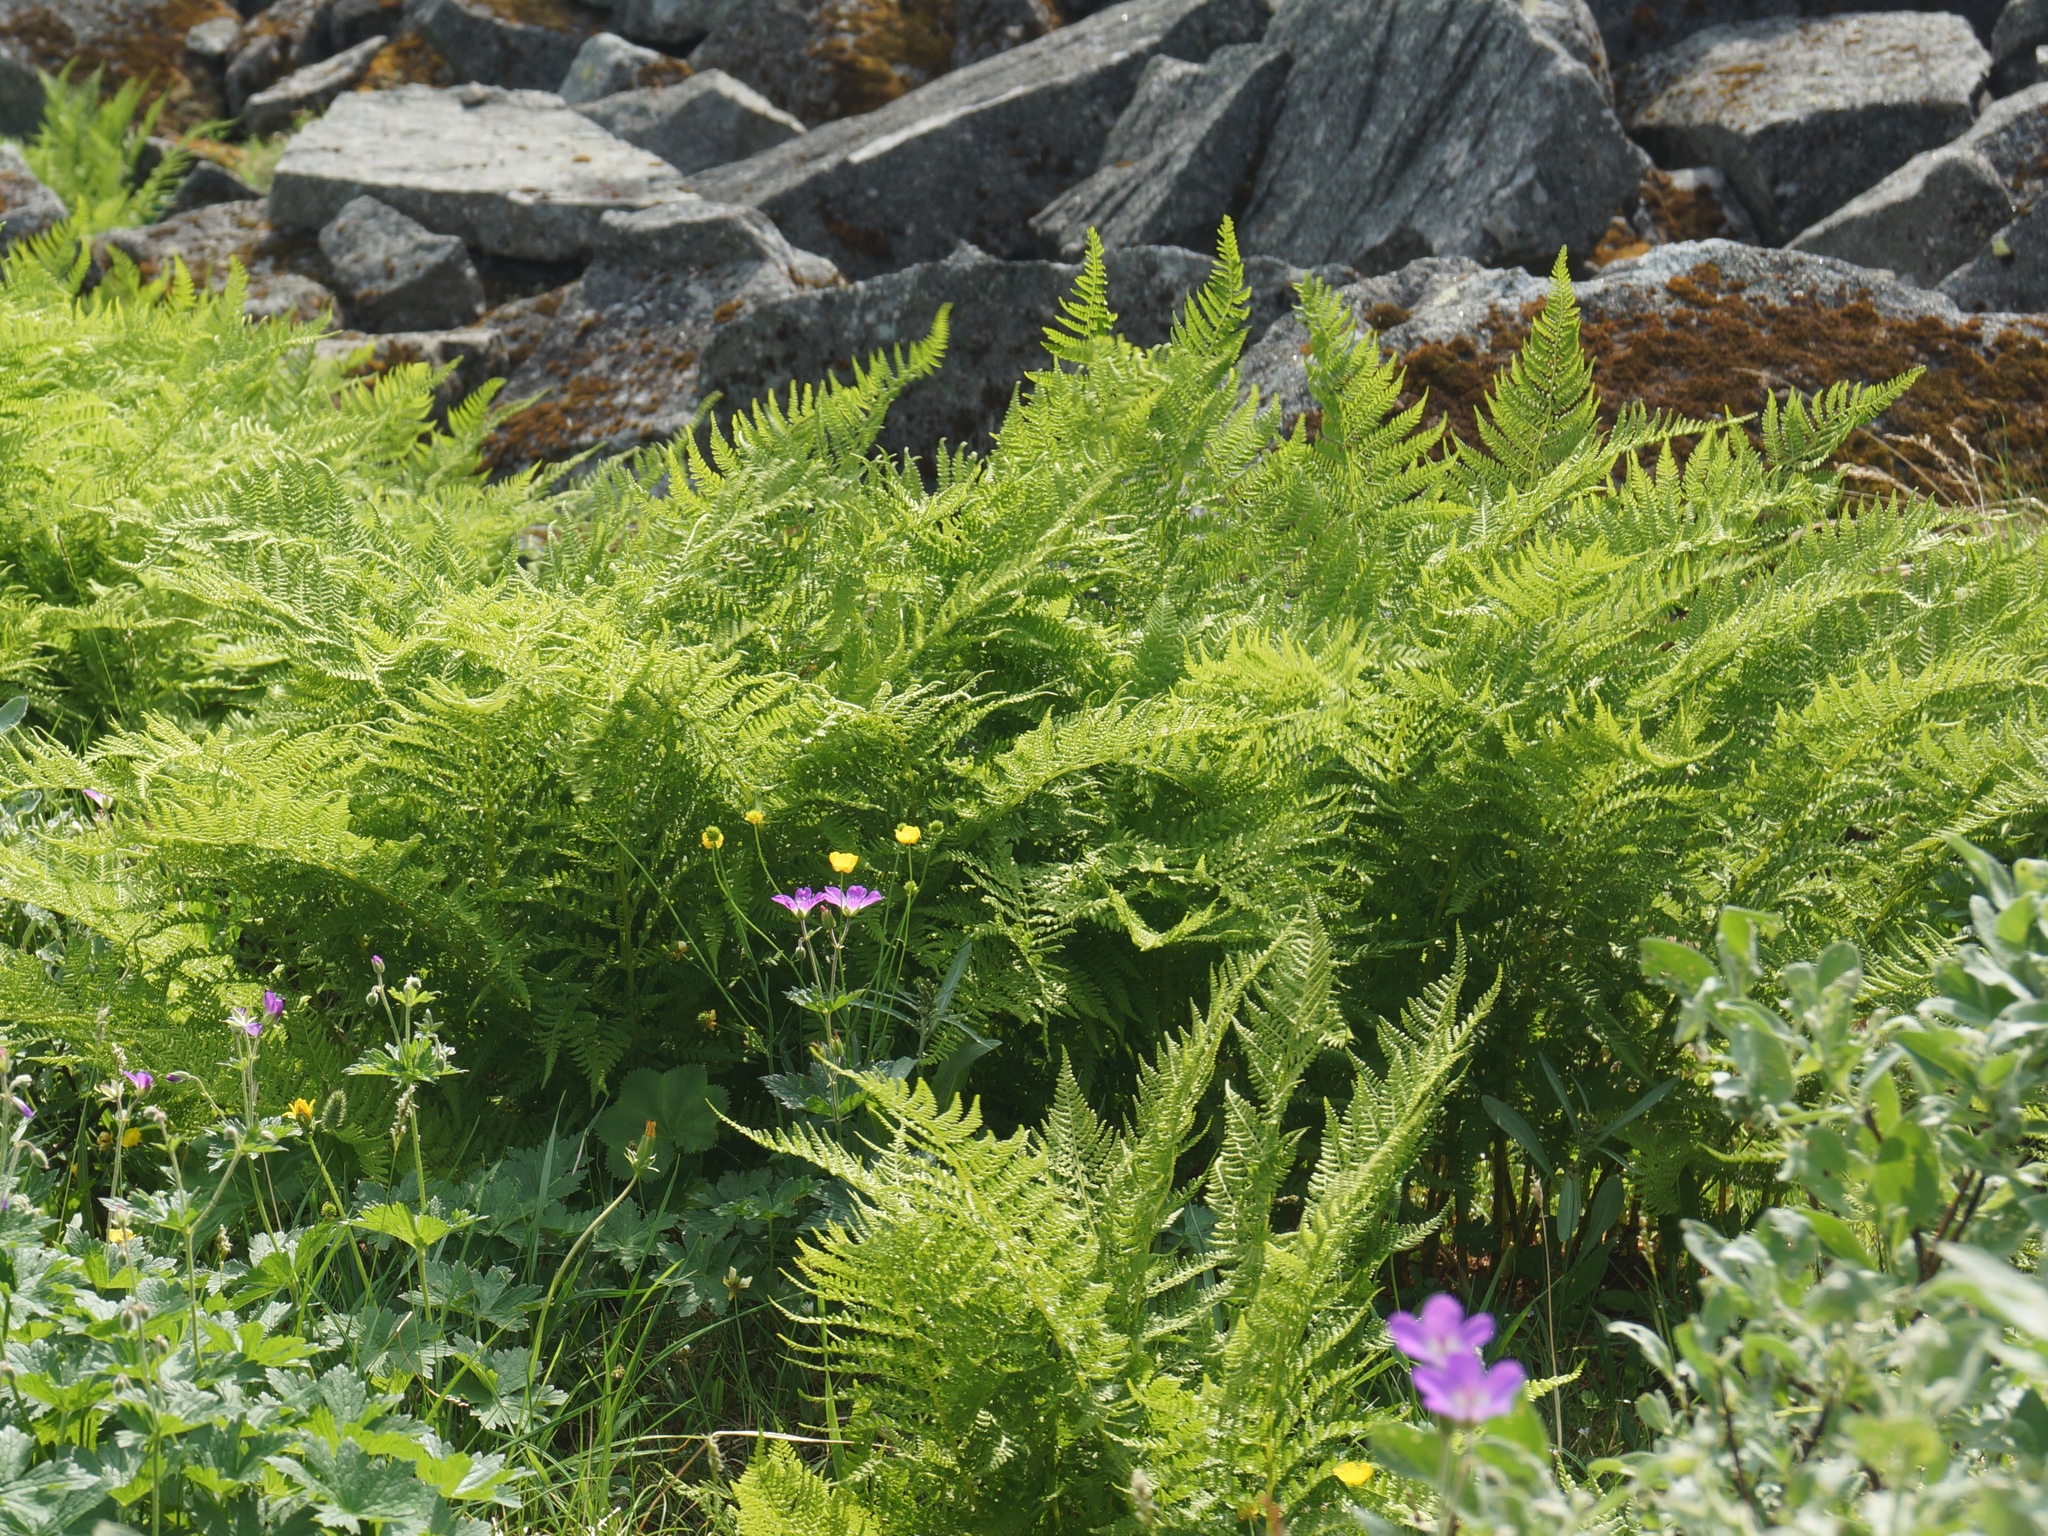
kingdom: Plantae
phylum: Tracheophyta
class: Polypodiopsida
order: Polypodiales
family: Athyriaceae
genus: Athyrium
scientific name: Athyrium filix-femina
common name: Lady fern
